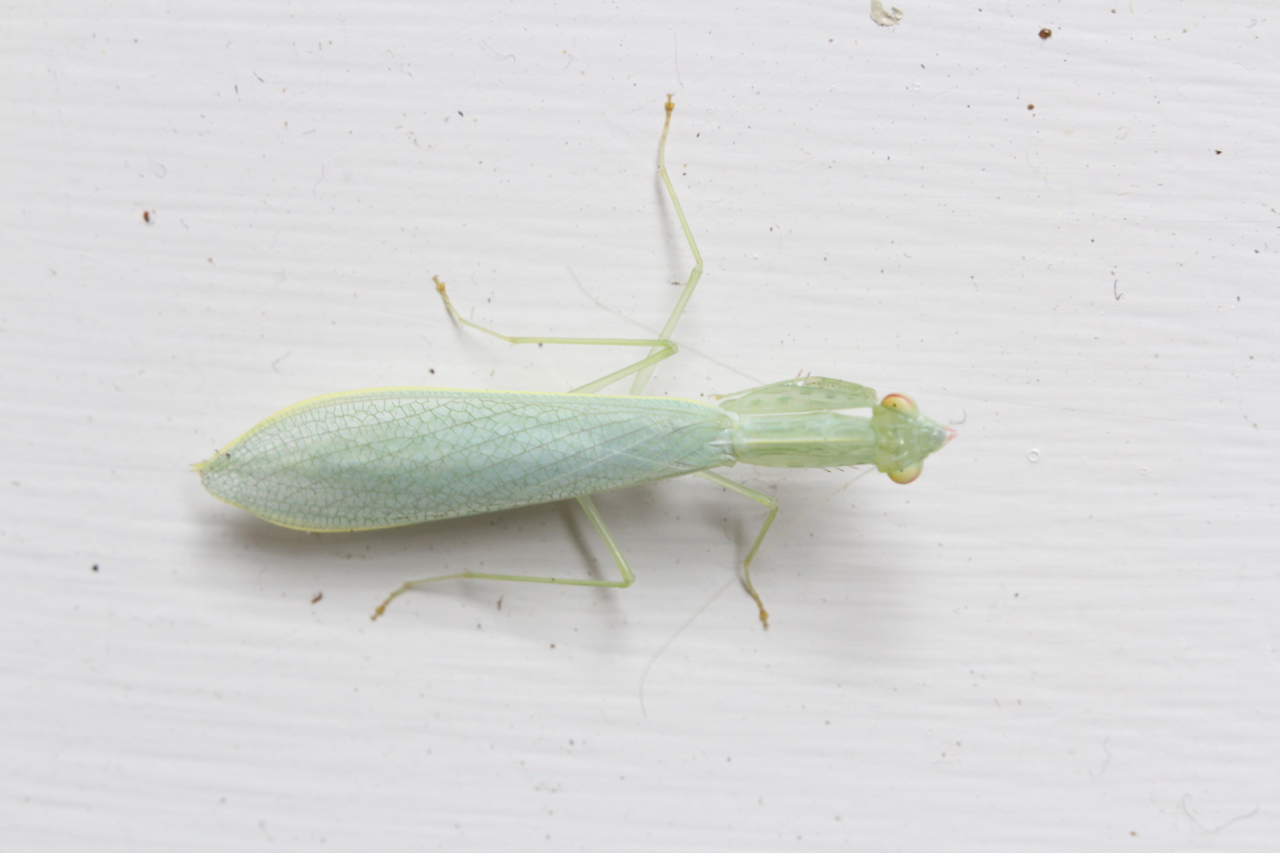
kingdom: Animalia
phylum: Arthropoda
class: Insecta
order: Mantodea
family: Nanomantidae
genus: Kongobatha
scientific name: Kongobatha diademata
